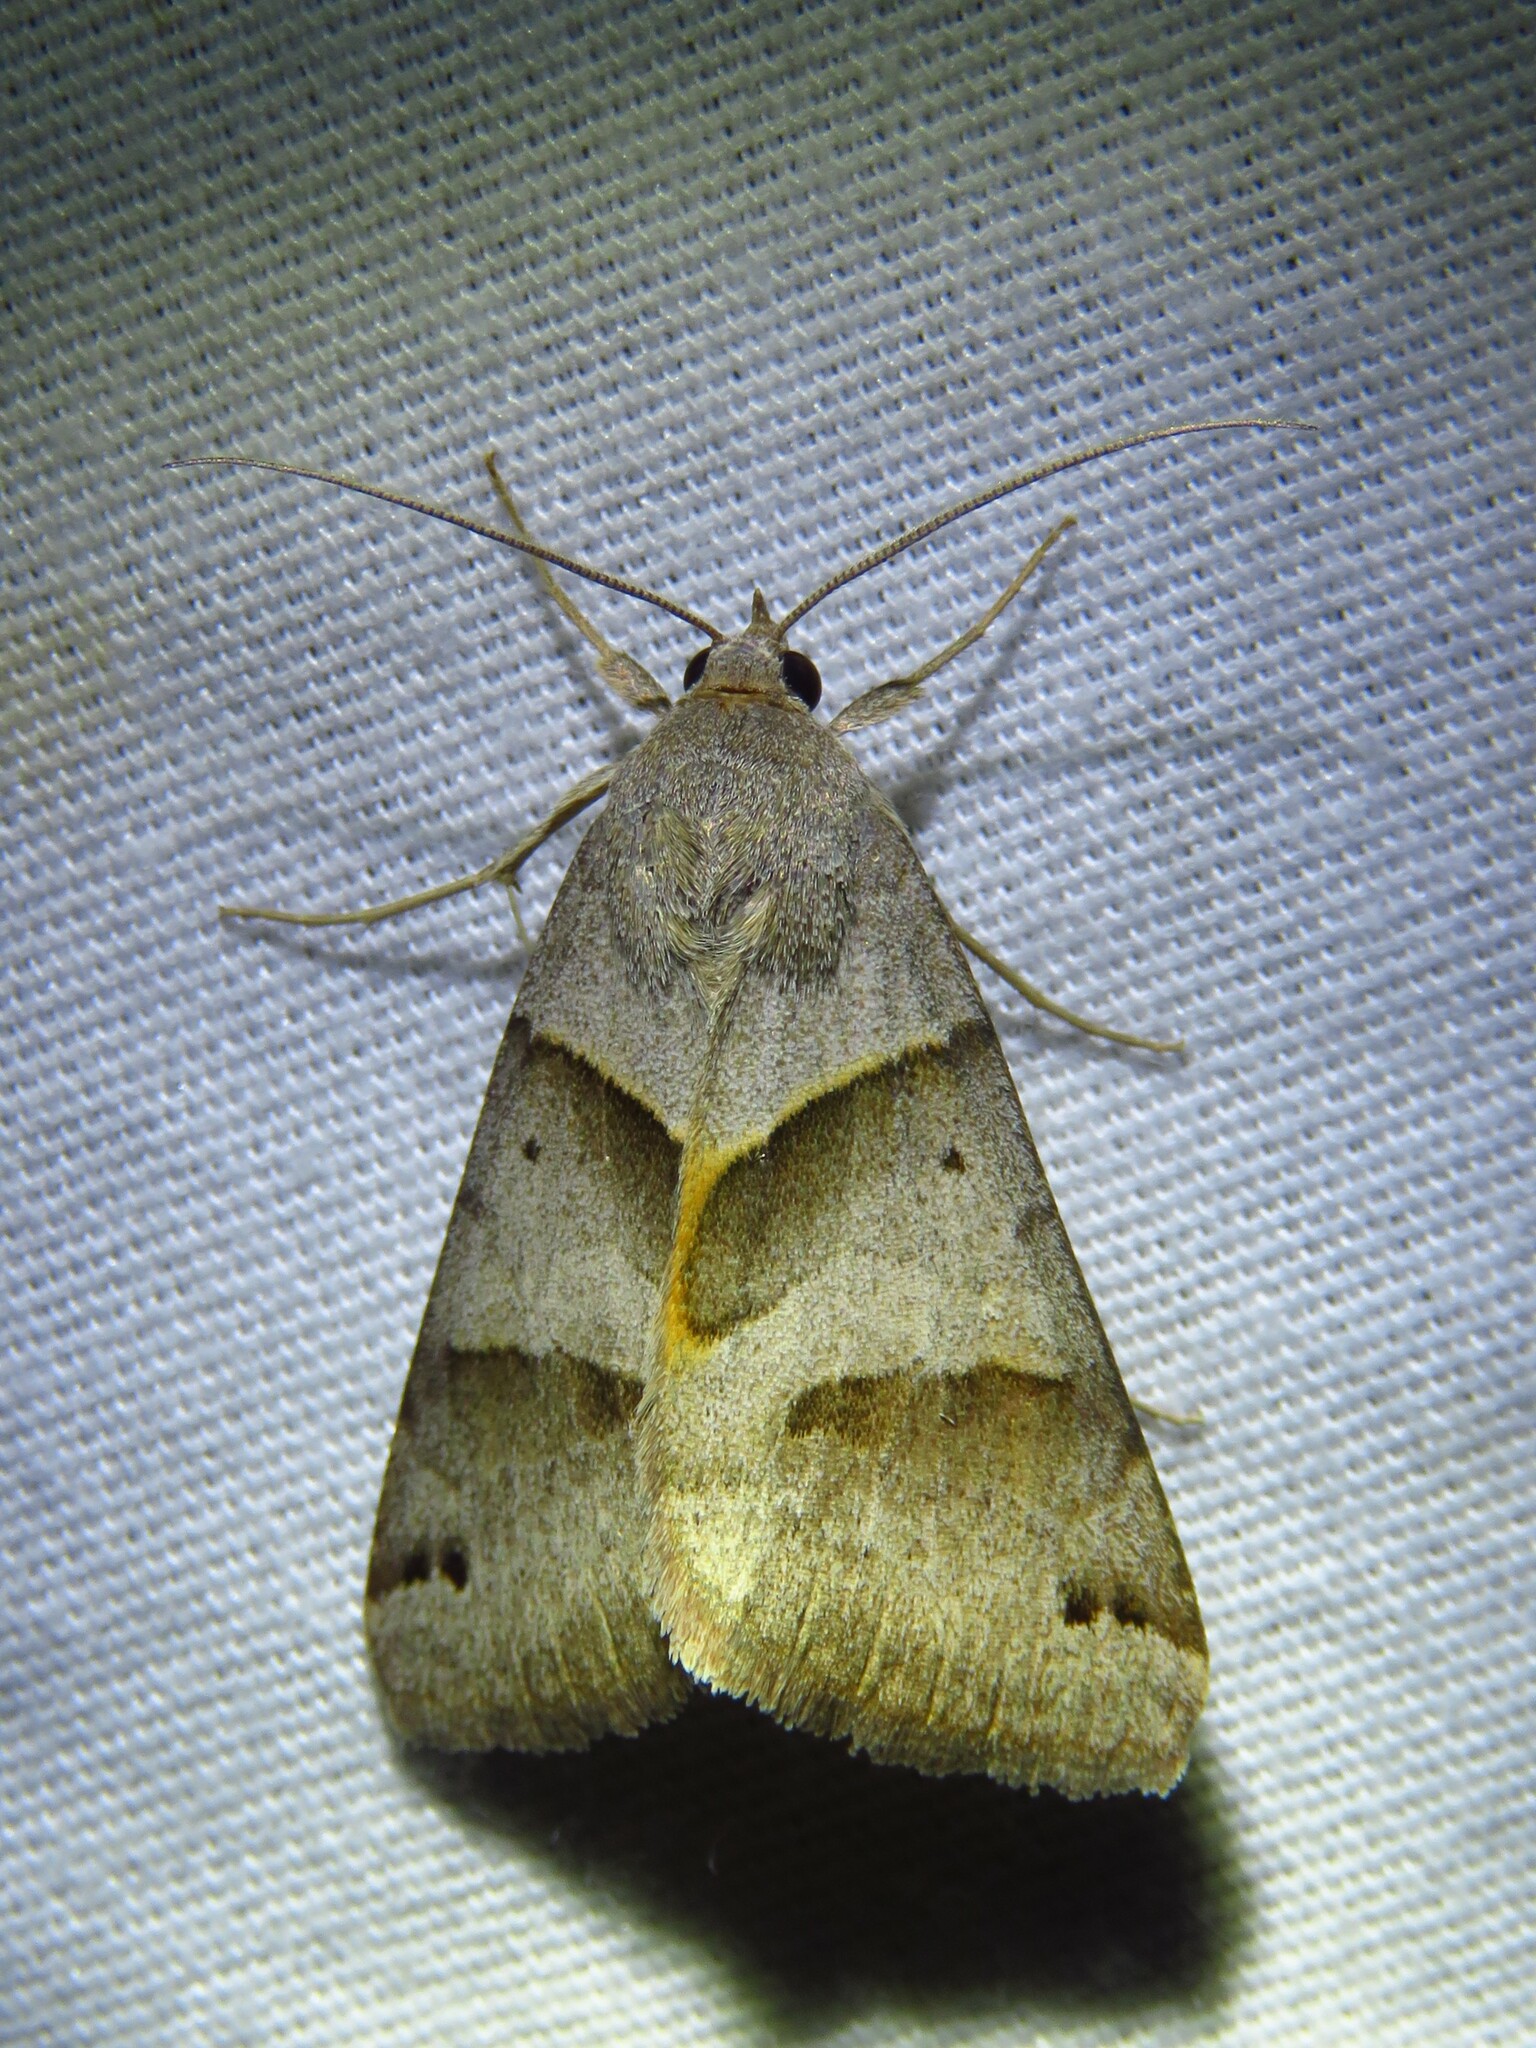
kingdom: Animalia
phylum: Arthropoda
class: Insecta
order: Lepidoptera
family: Erebidae
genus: Caenurgina
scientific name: Caenurgina erechtea
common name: Forage looper moth
